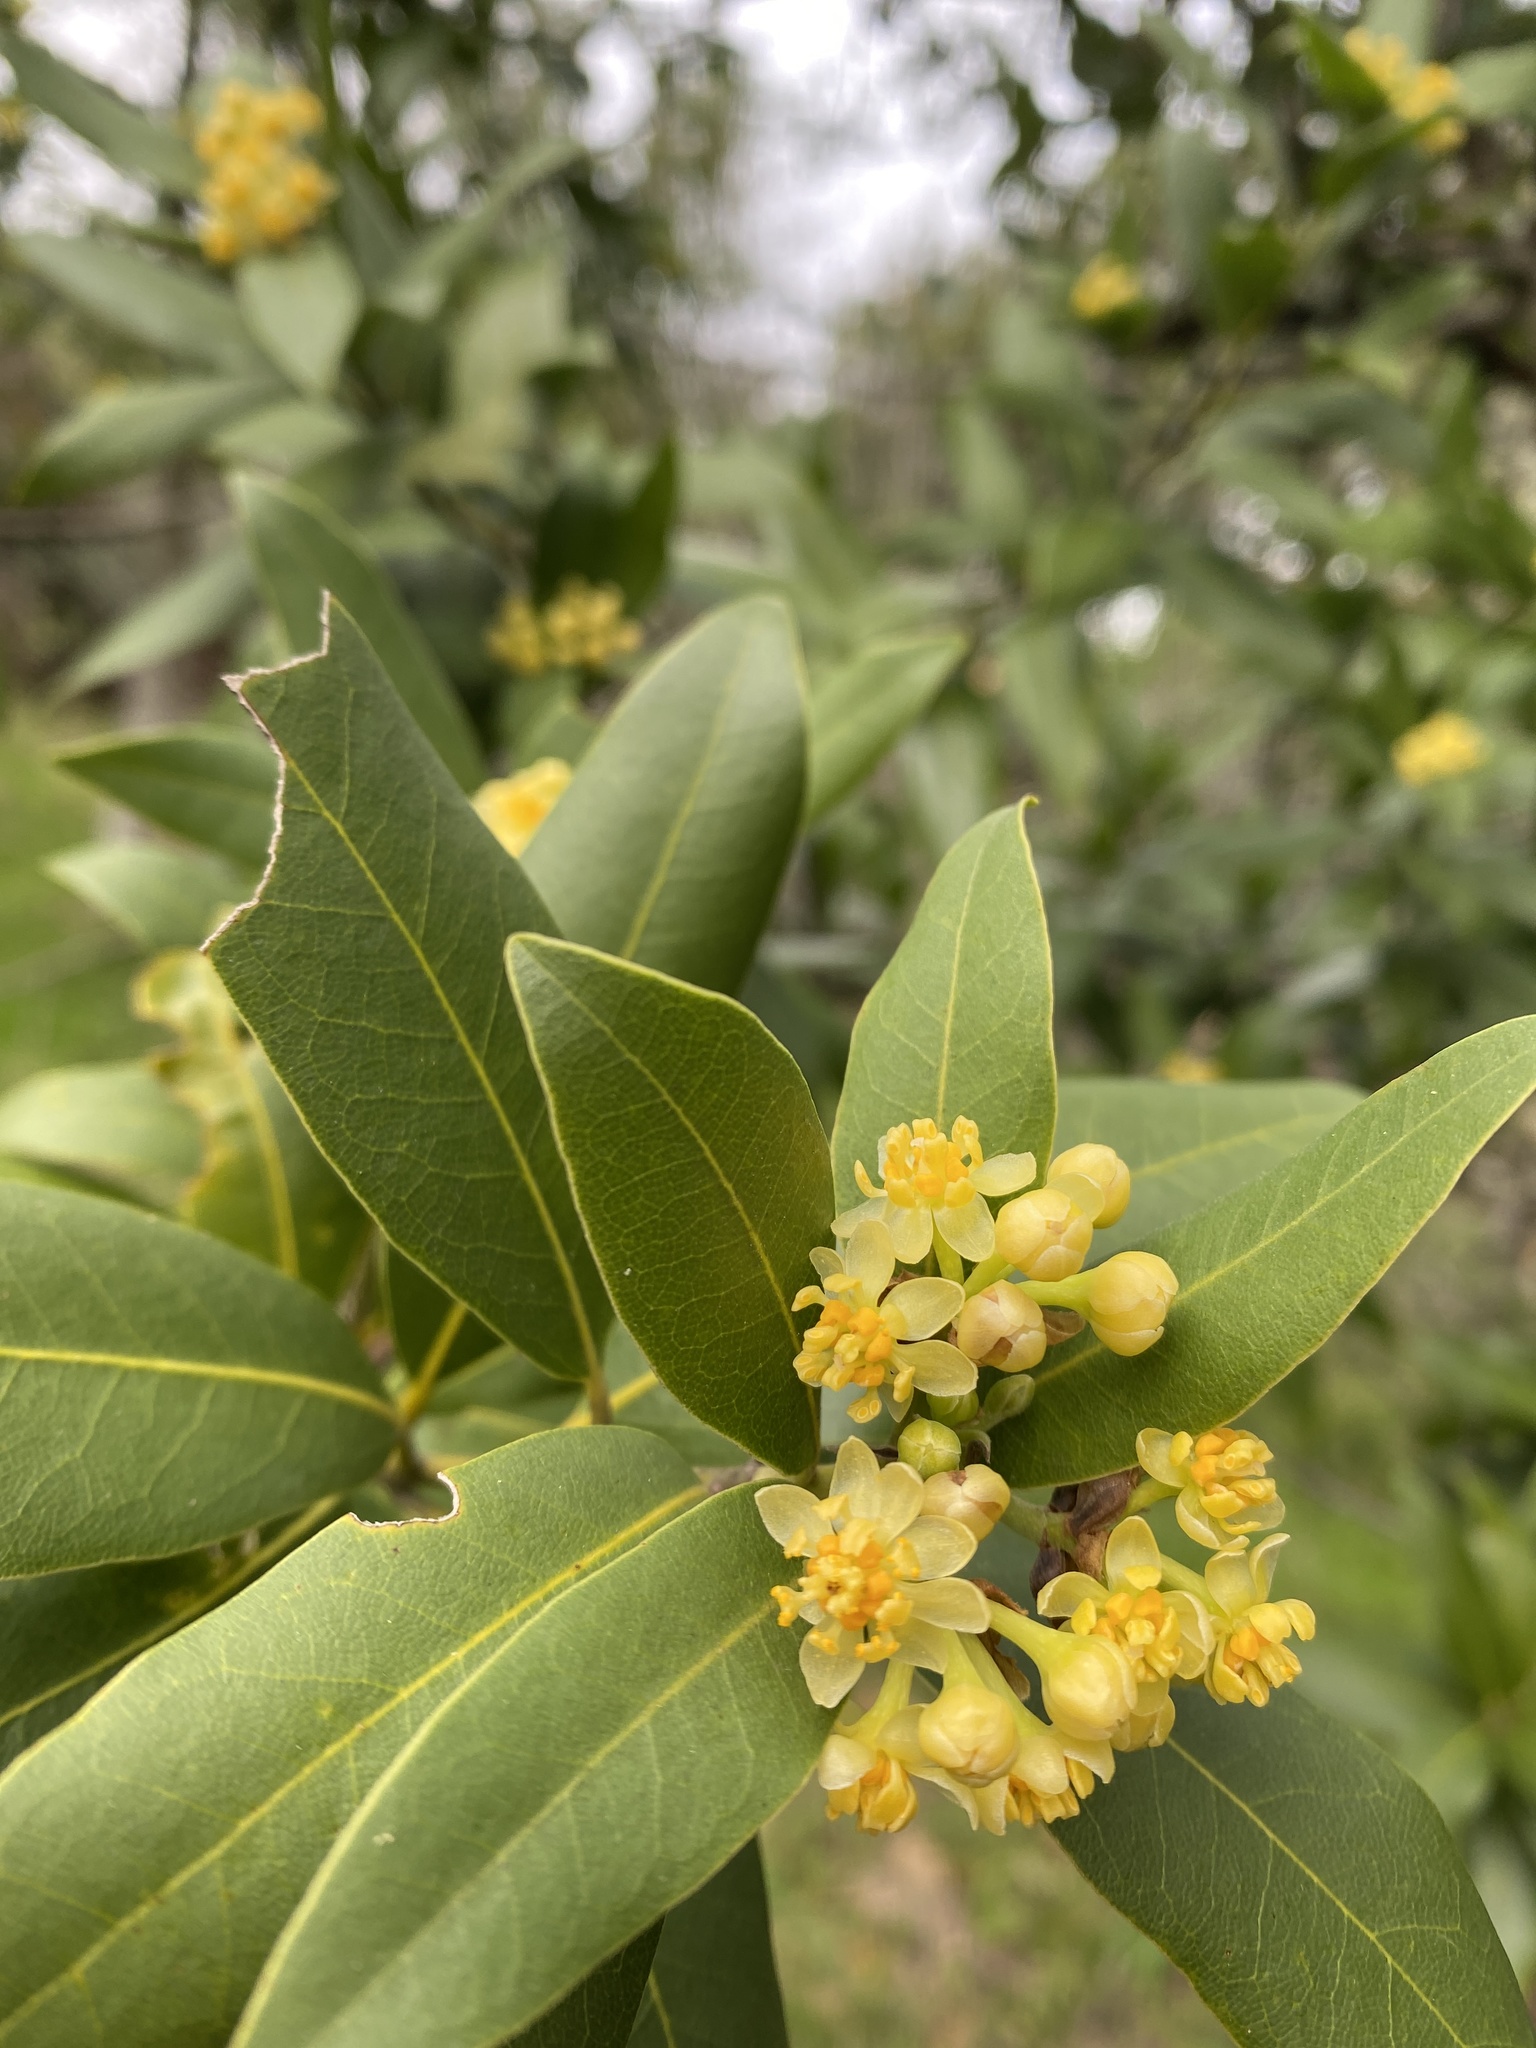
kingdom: Plantae
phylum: Tracheophyta
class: Magnoliopsida
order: Laurales
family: Lauraceae
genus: Umbellularia
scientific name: Umbellularia californica
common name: California bay
